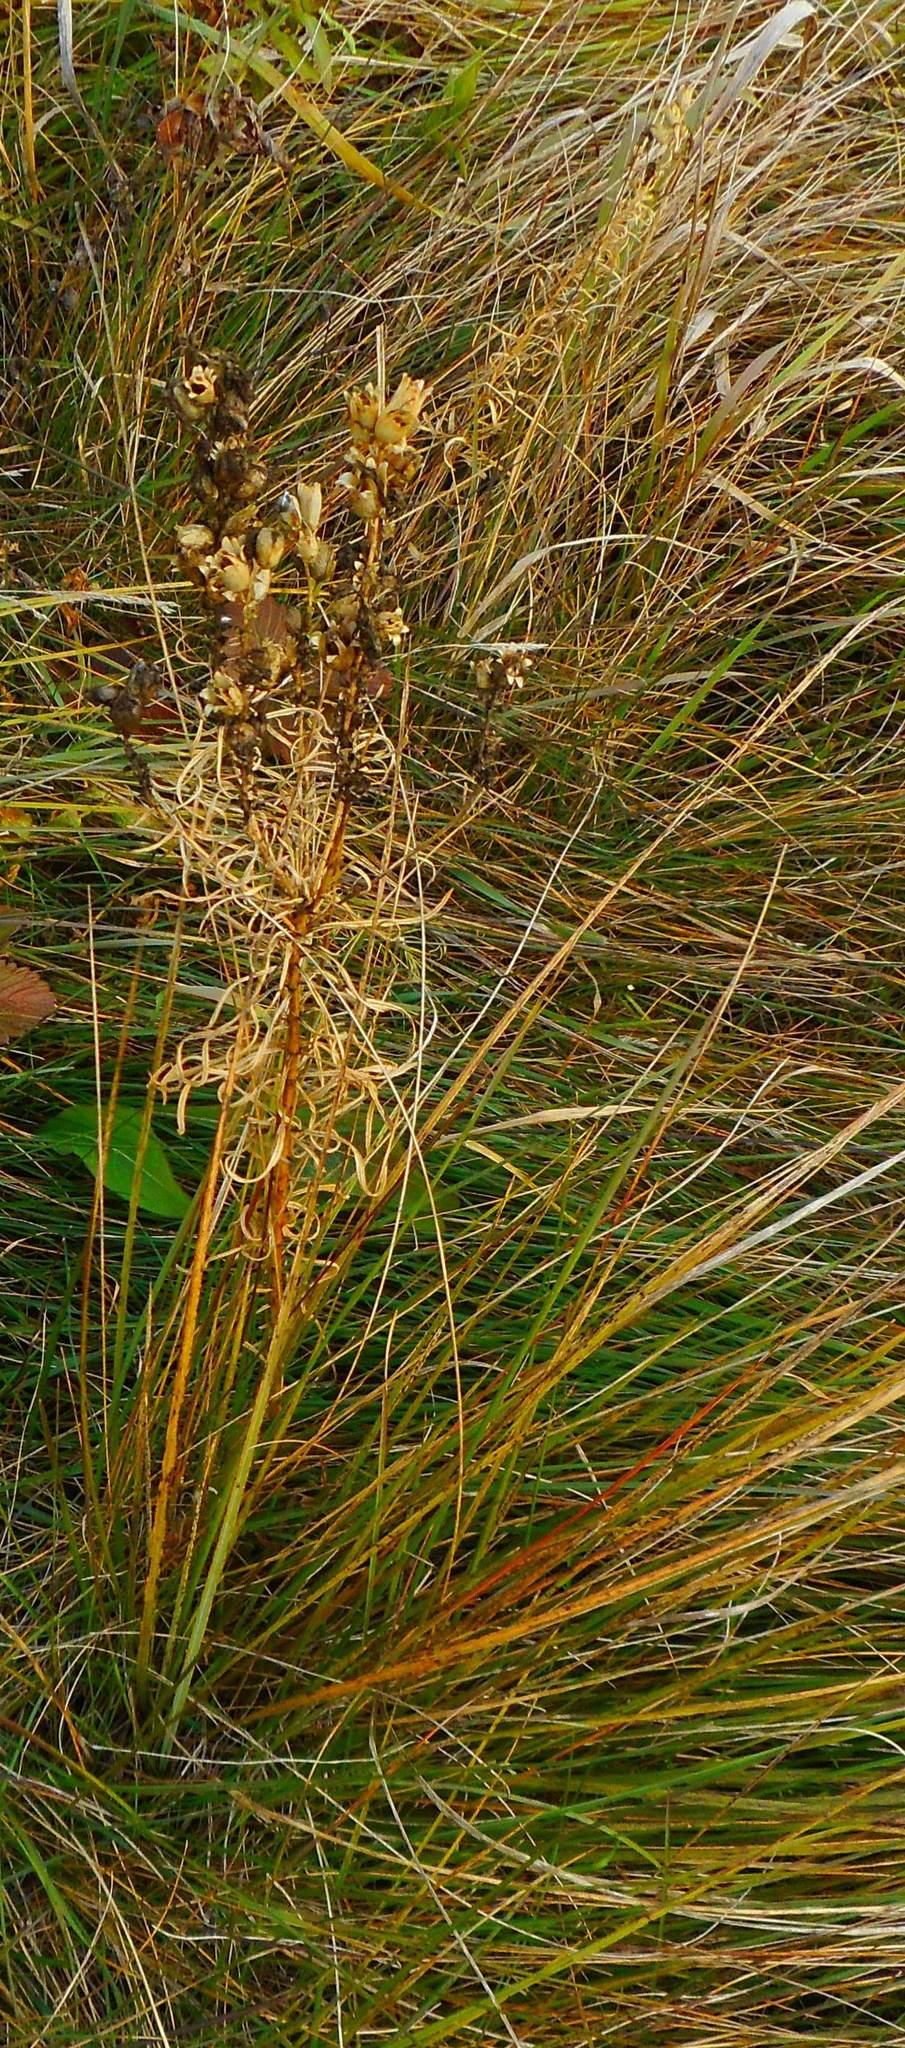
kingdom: Plantae
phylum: Tracheophyta
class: Magnoliopsida
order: Lamiales
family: Plantaginaceae
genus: Linaria
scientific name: Linaria vulgaris
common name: Butter and eggs
